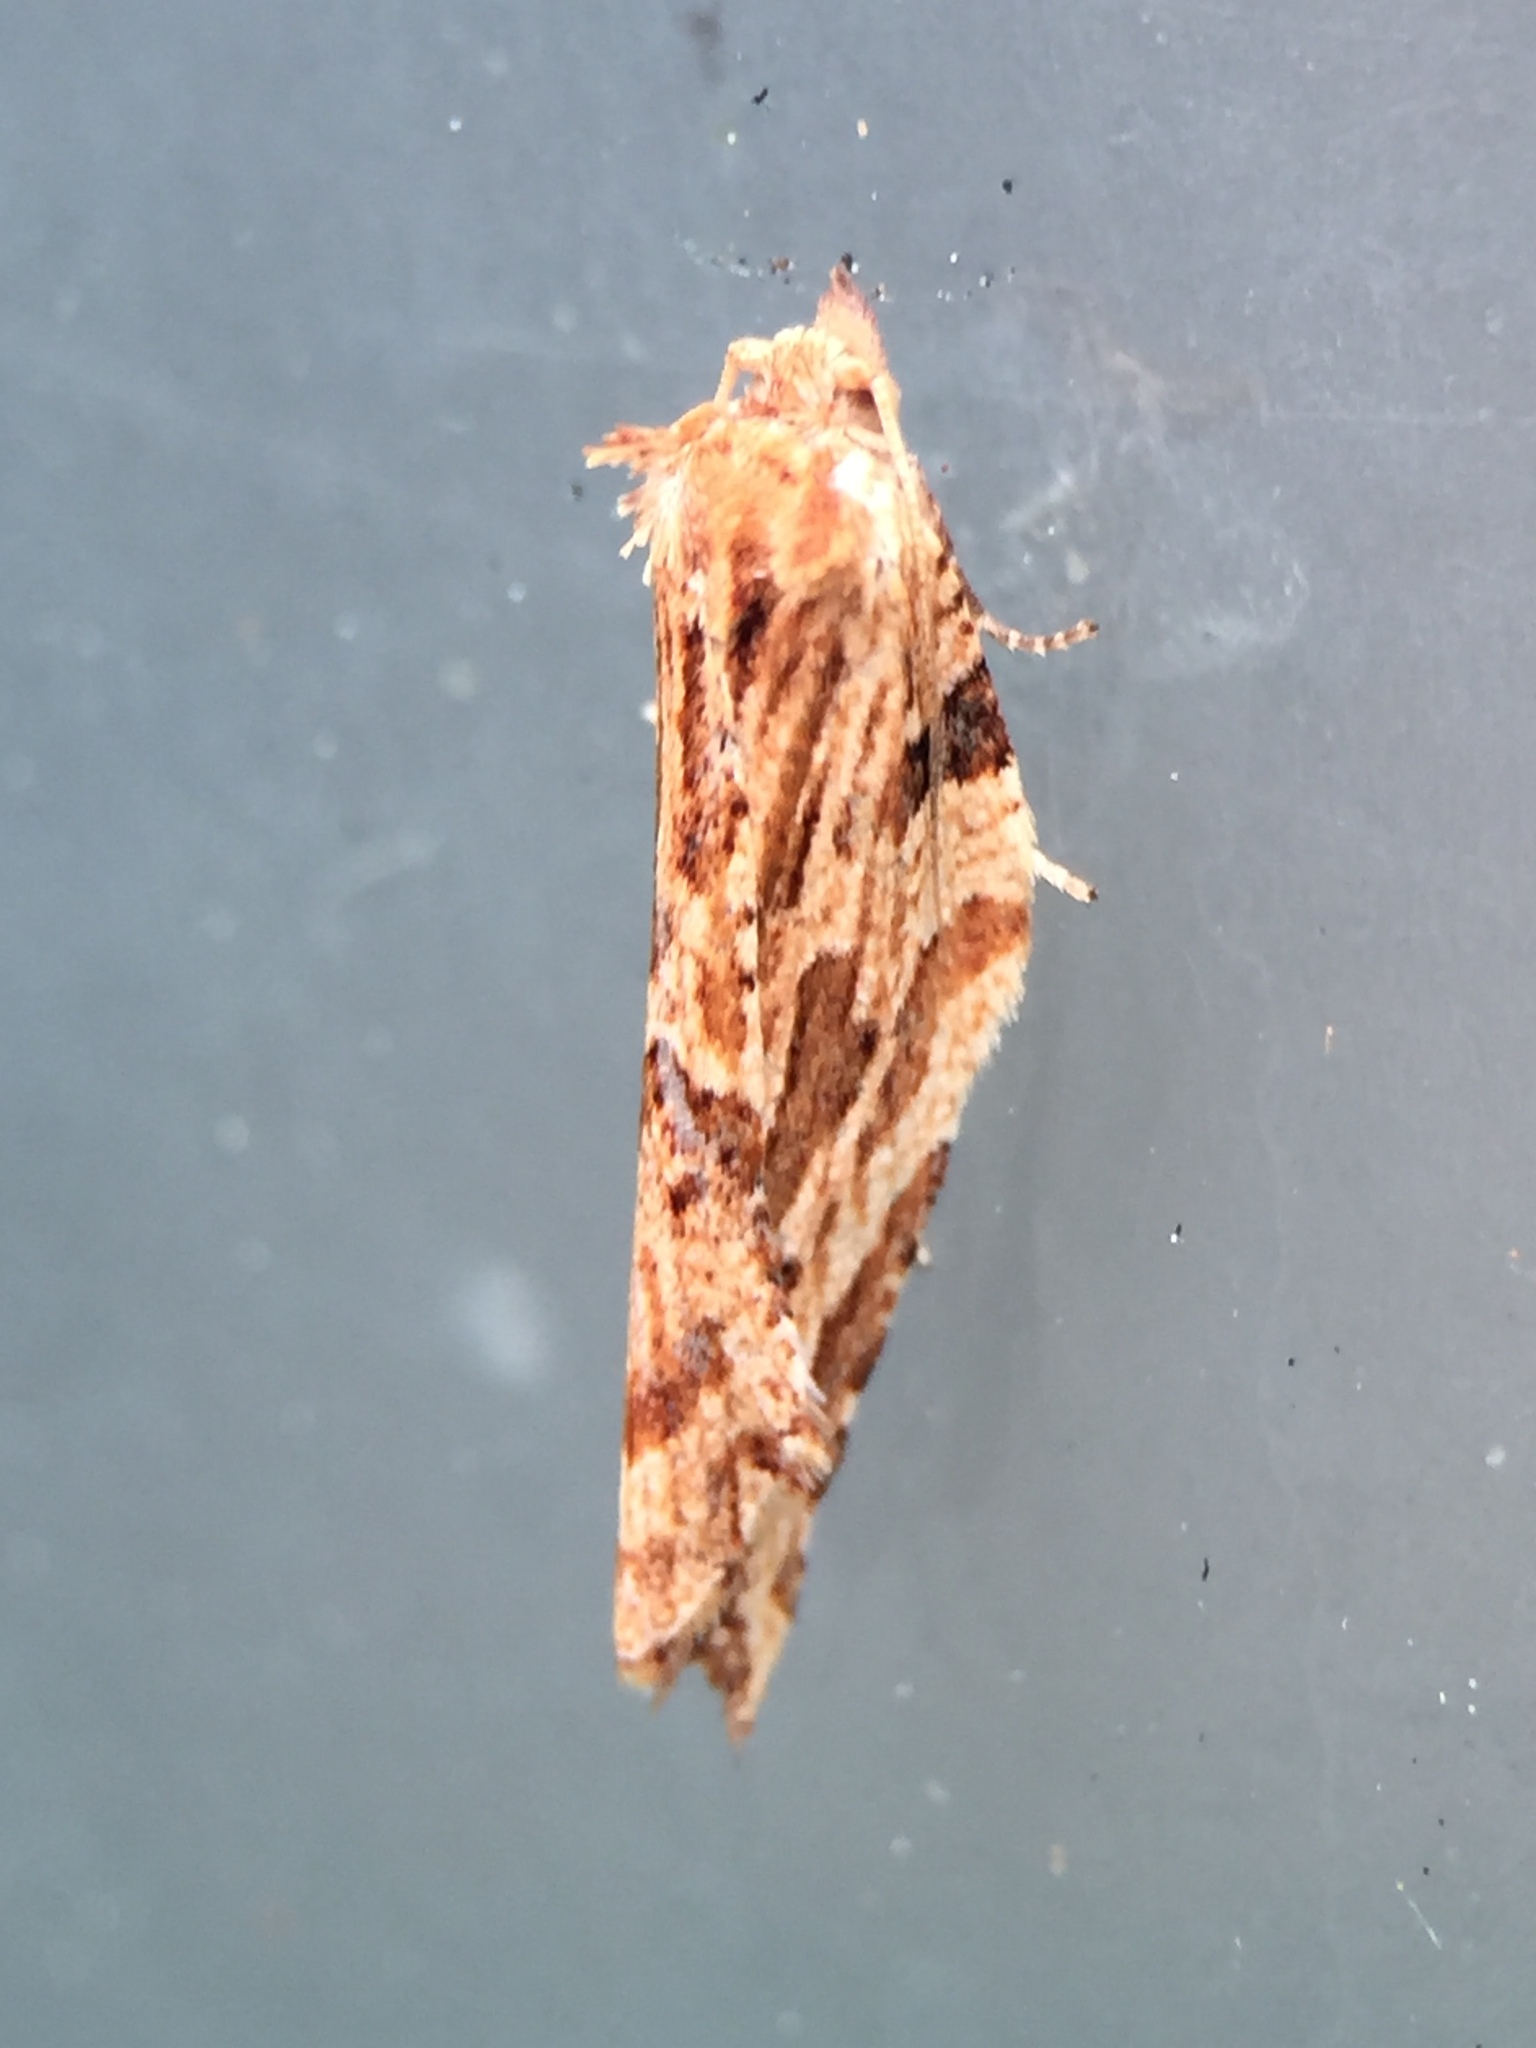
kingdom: Animalia
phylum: Arthropoda
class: Insecta
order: Lepidoptera
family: Tortricidae
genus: Epalxiphora
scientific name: Epalxiphora axenana
